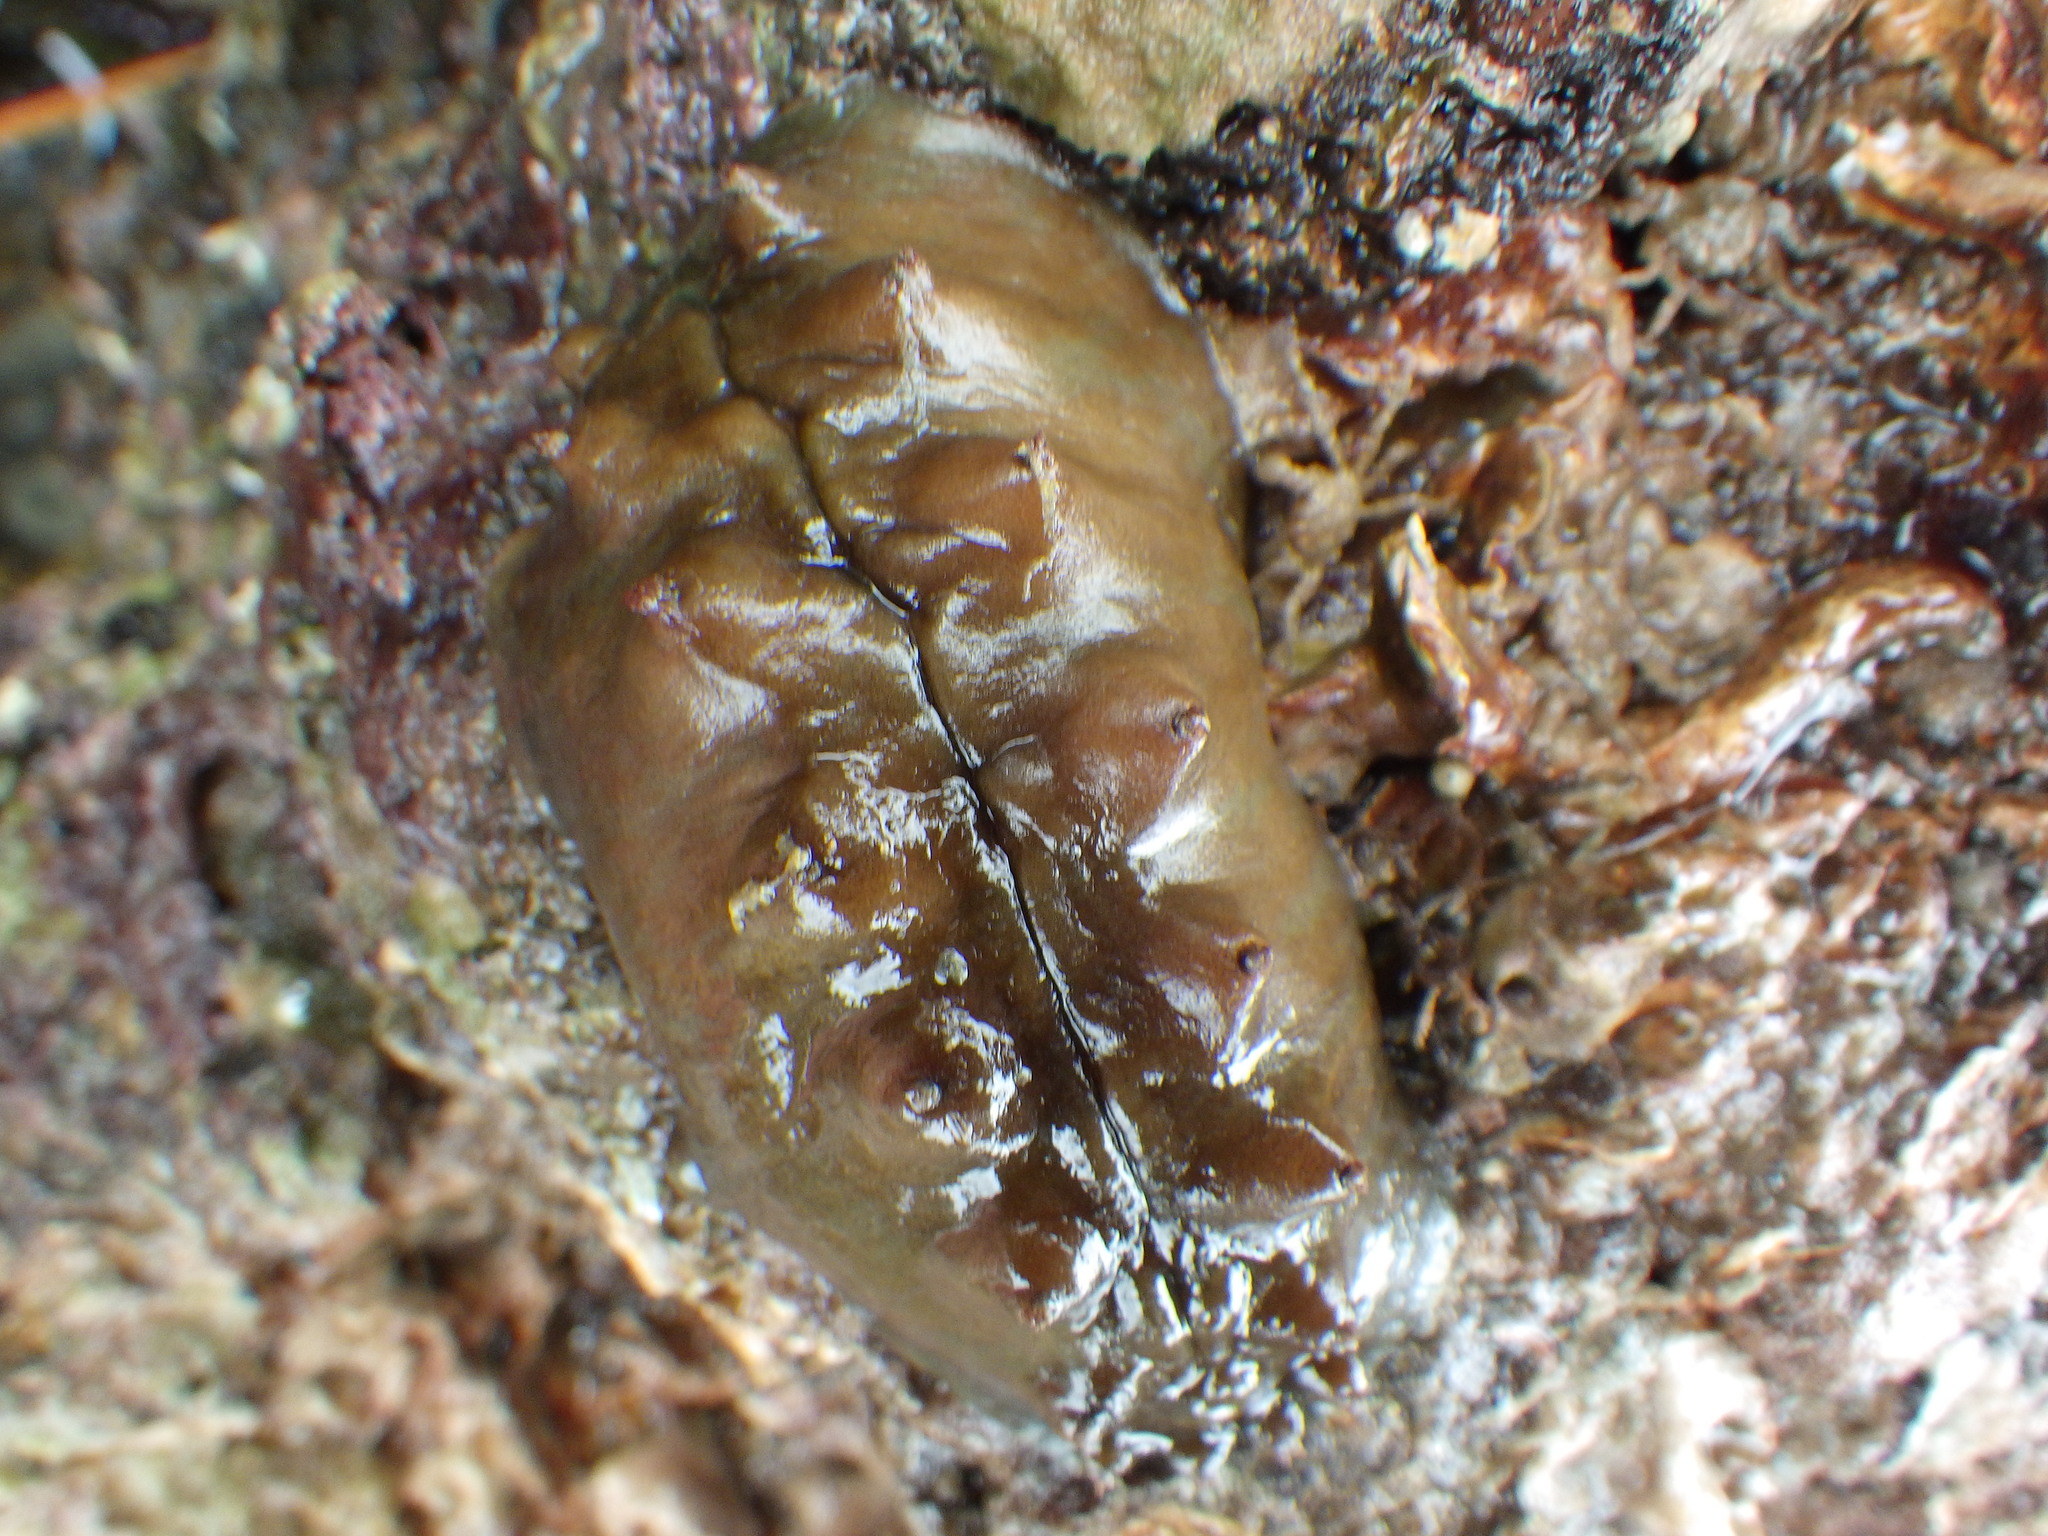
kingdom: Animalia
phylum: Mollusca
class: Polyplacophora
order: Chitonida
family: Acanthochitonidae
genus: Cryptoconchus
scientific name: Cryptoconchus porosus
